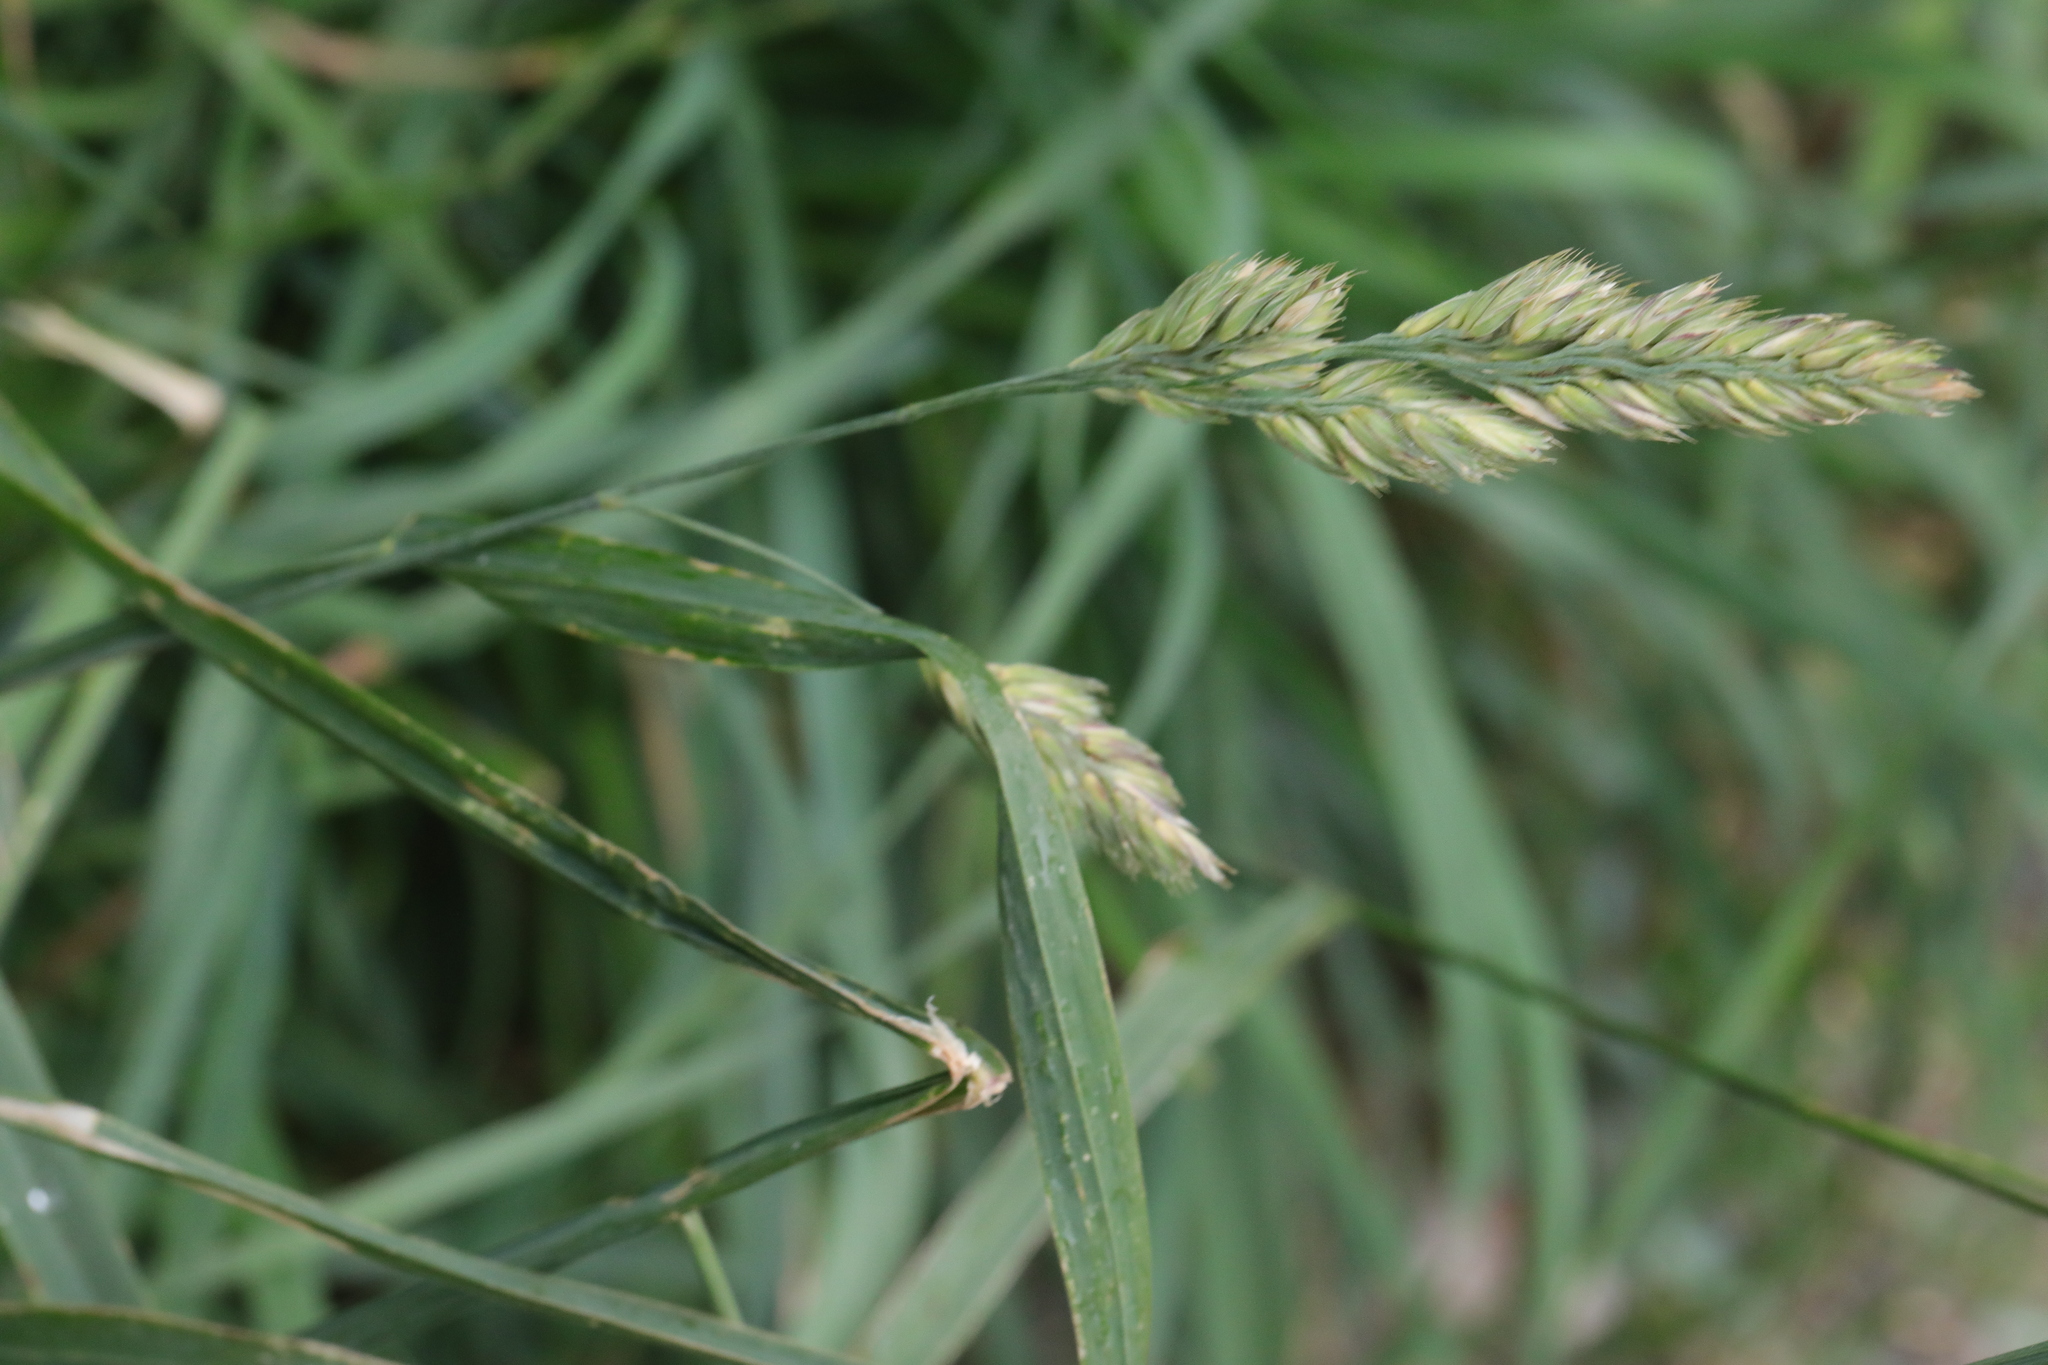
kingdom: Plantae
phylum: Tracheophyta
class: Liliopsida
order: Poales
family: Poaceae
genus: Dactylis
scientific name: Dactylis glomerata
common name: Orchardgrass
